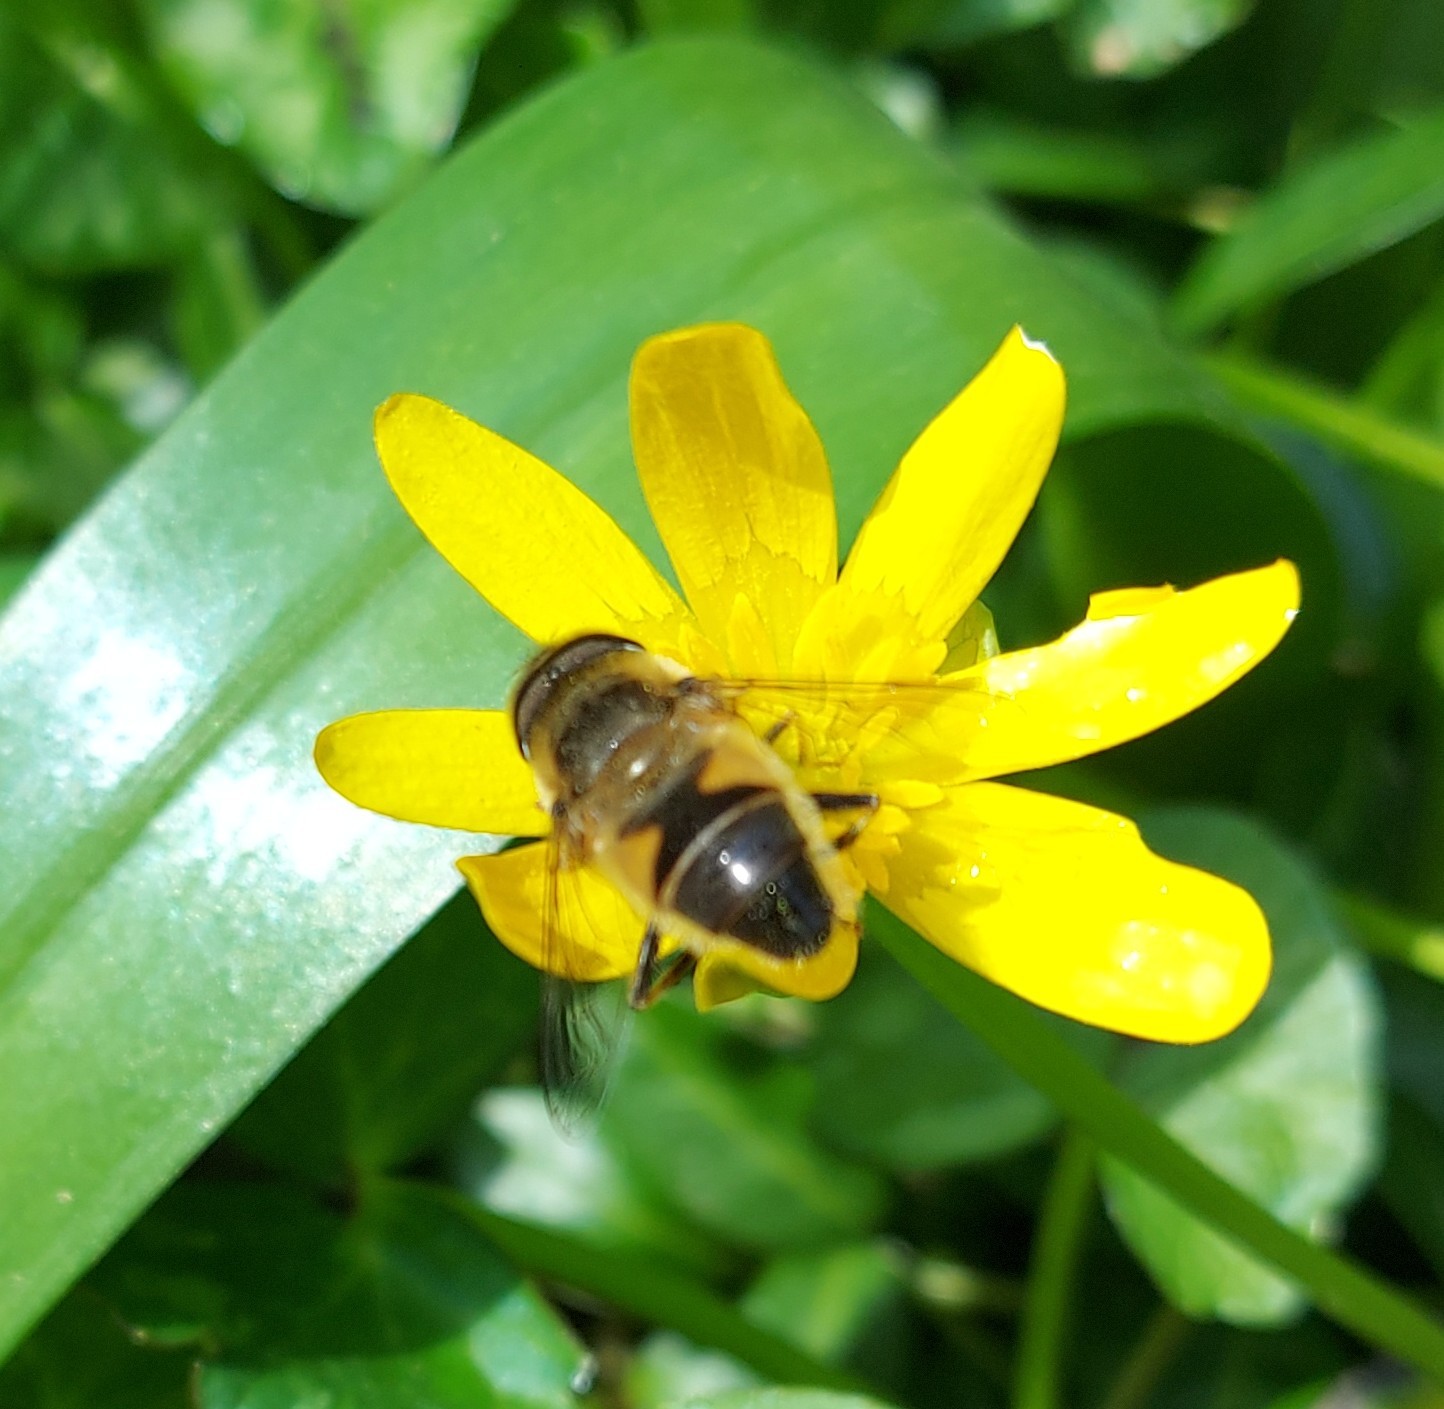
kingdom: Animalia
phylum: Arthropoda
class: Insecta
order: Diptera
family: Syrphidae
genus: Eristalis
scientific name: Eristalis pertinax
